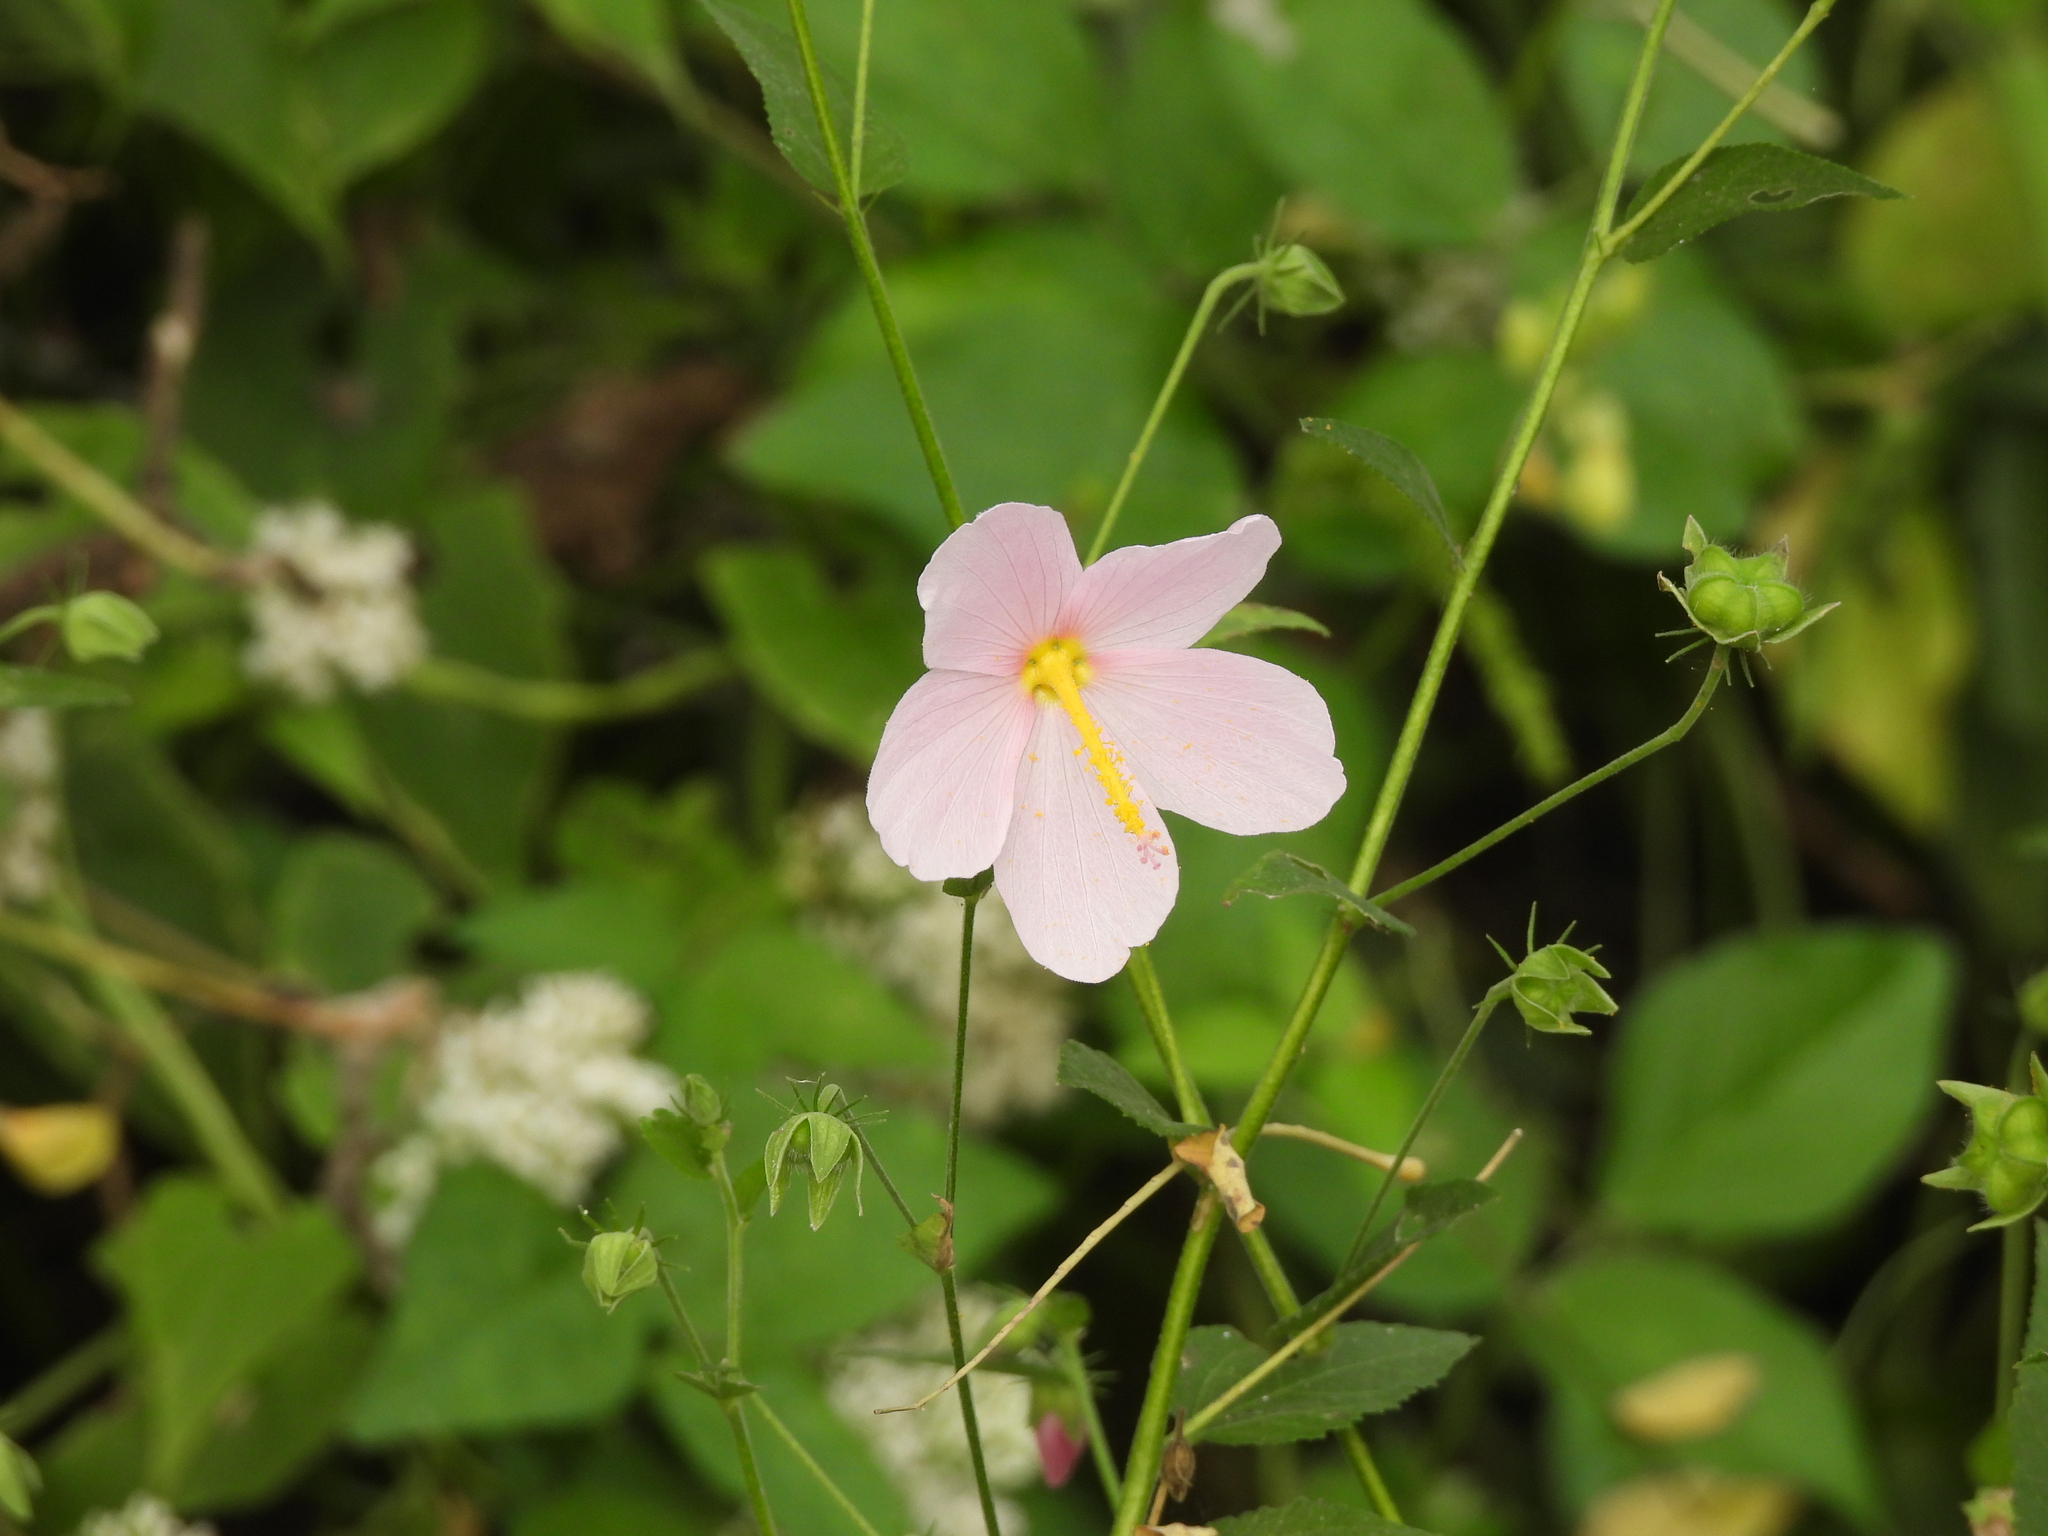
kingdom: Plantae
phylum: Tracheophyta
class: Magnoliopsida
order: Malvales
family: Malvaceae
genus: Kosteletzkya
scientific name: Kosteletzkya pentacarpos
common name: Virginia saltmarsh mallow
